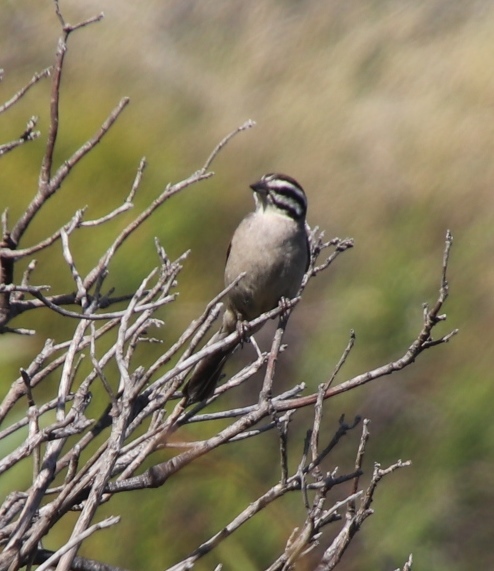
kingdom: Animalia
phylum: Chordata
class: Aves
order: Passeriformes
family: Emberizidae
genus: Emberiza
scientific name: Emberiza capensis
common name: Cape bunting
